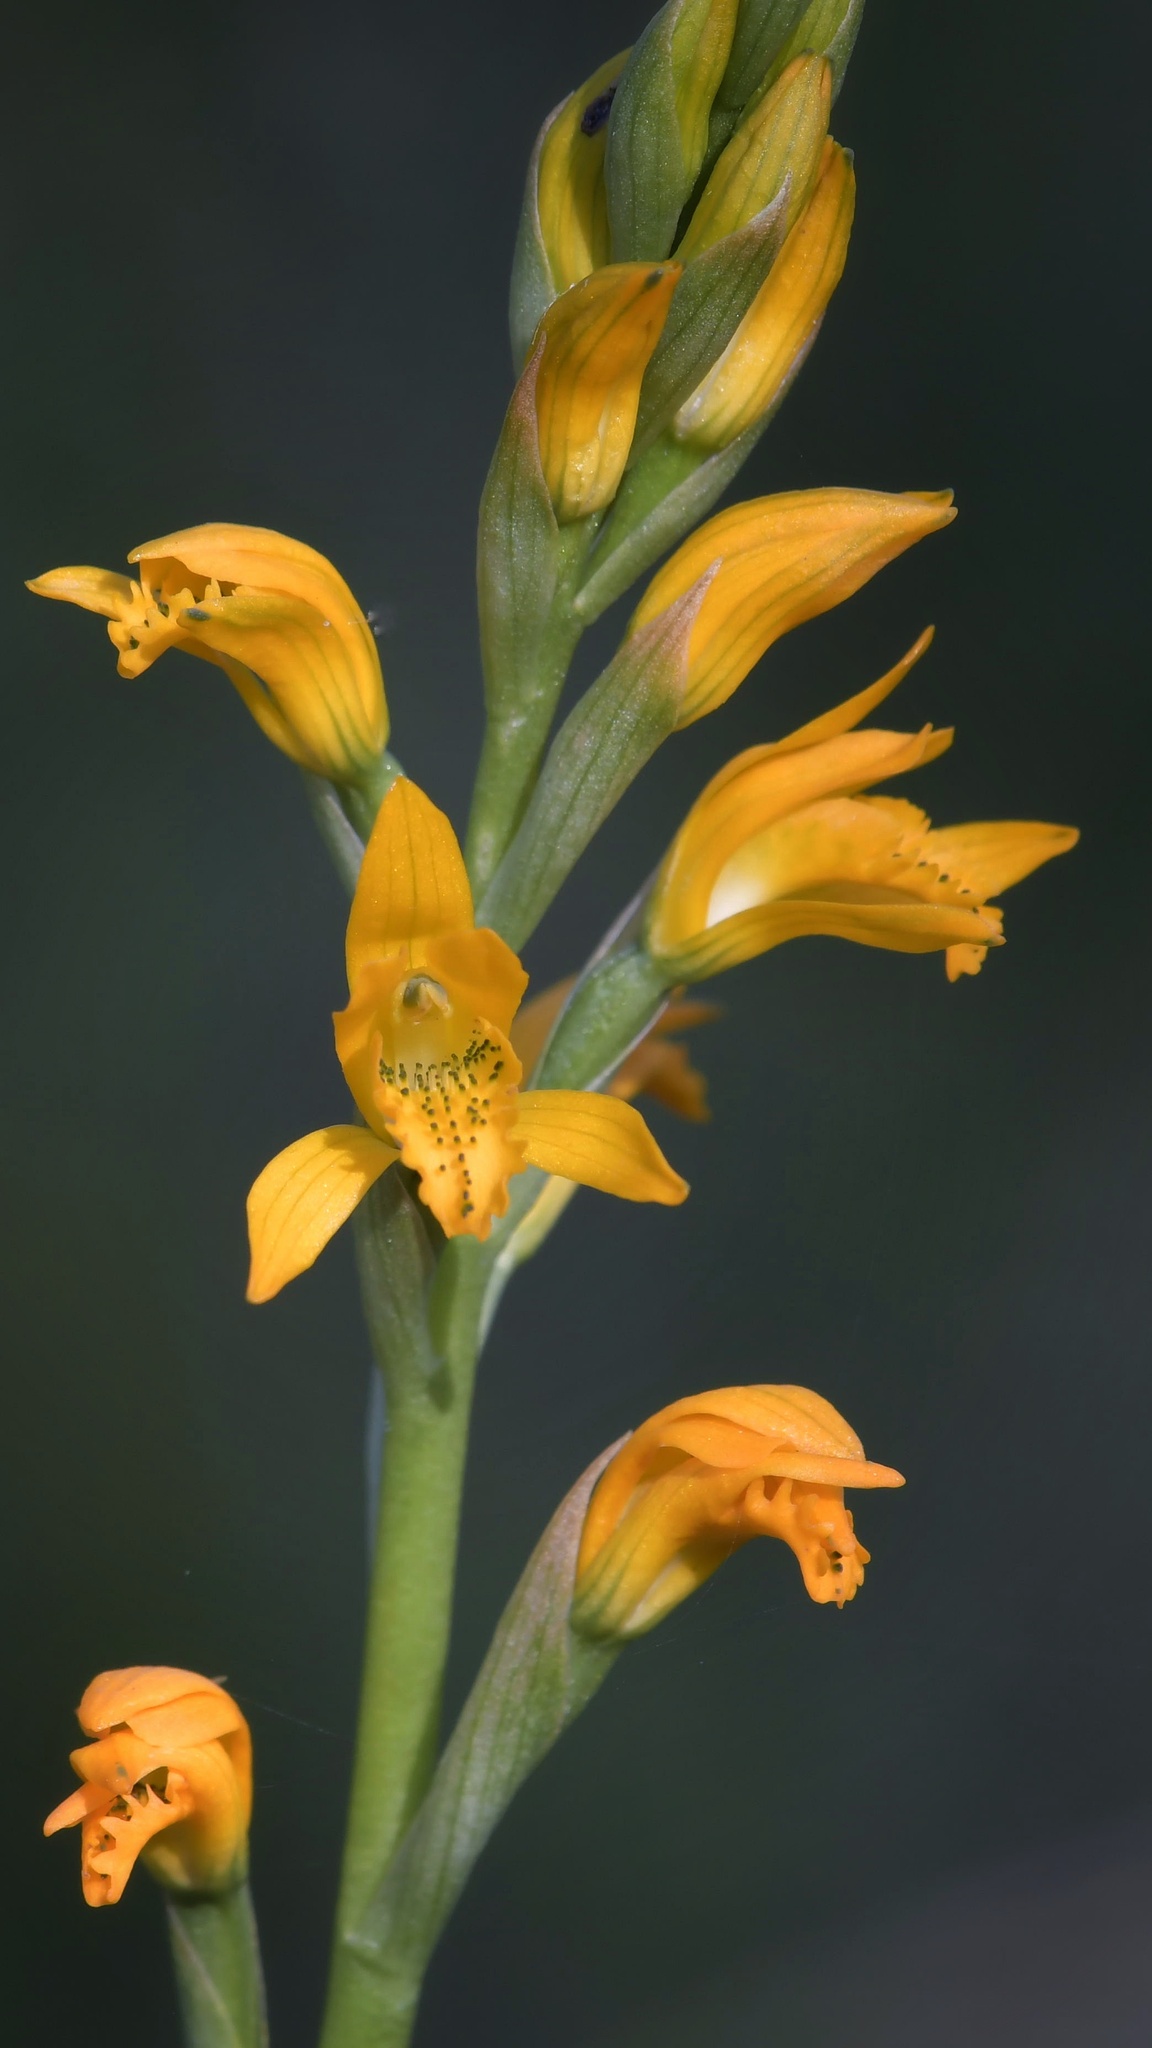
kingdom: Plantae
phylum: Tracheophyta
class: Liliopsida
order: Asparagales
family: Orchidaceae
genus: Chloraea
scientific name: Chloraea chrysantha
